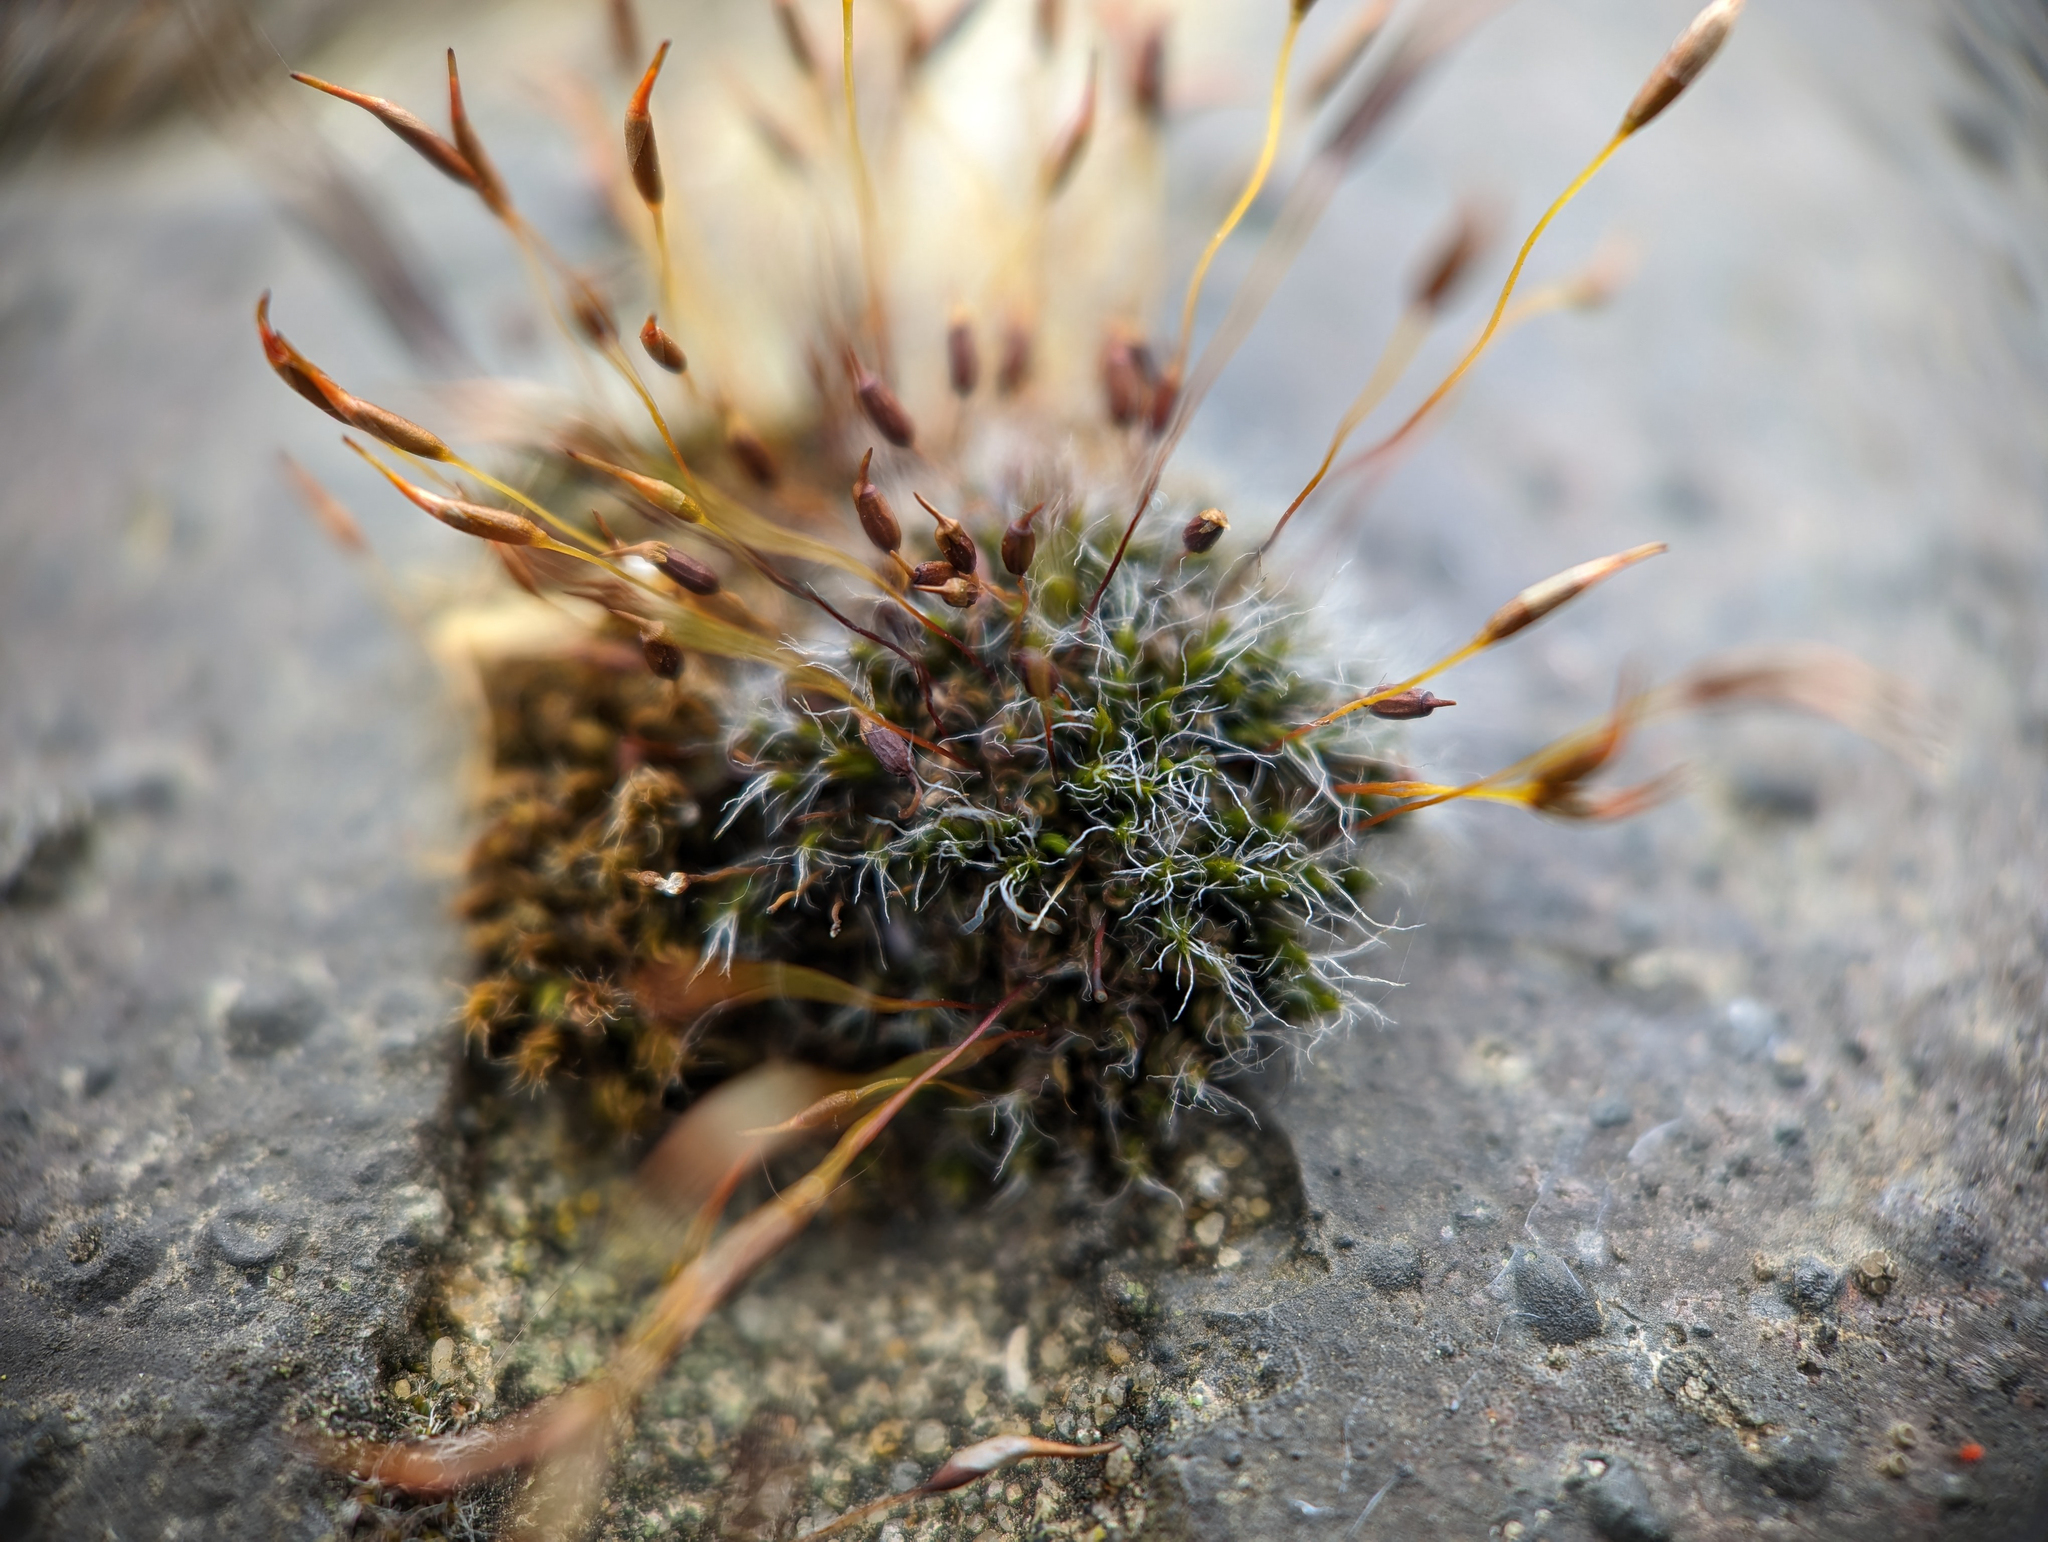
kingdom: Plantae
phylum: Bryophyta
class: Bryopsida
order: Pottiales
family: Pottiaceae
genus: Tortula
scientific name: Tortula muralis
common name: Wall screw-moss
